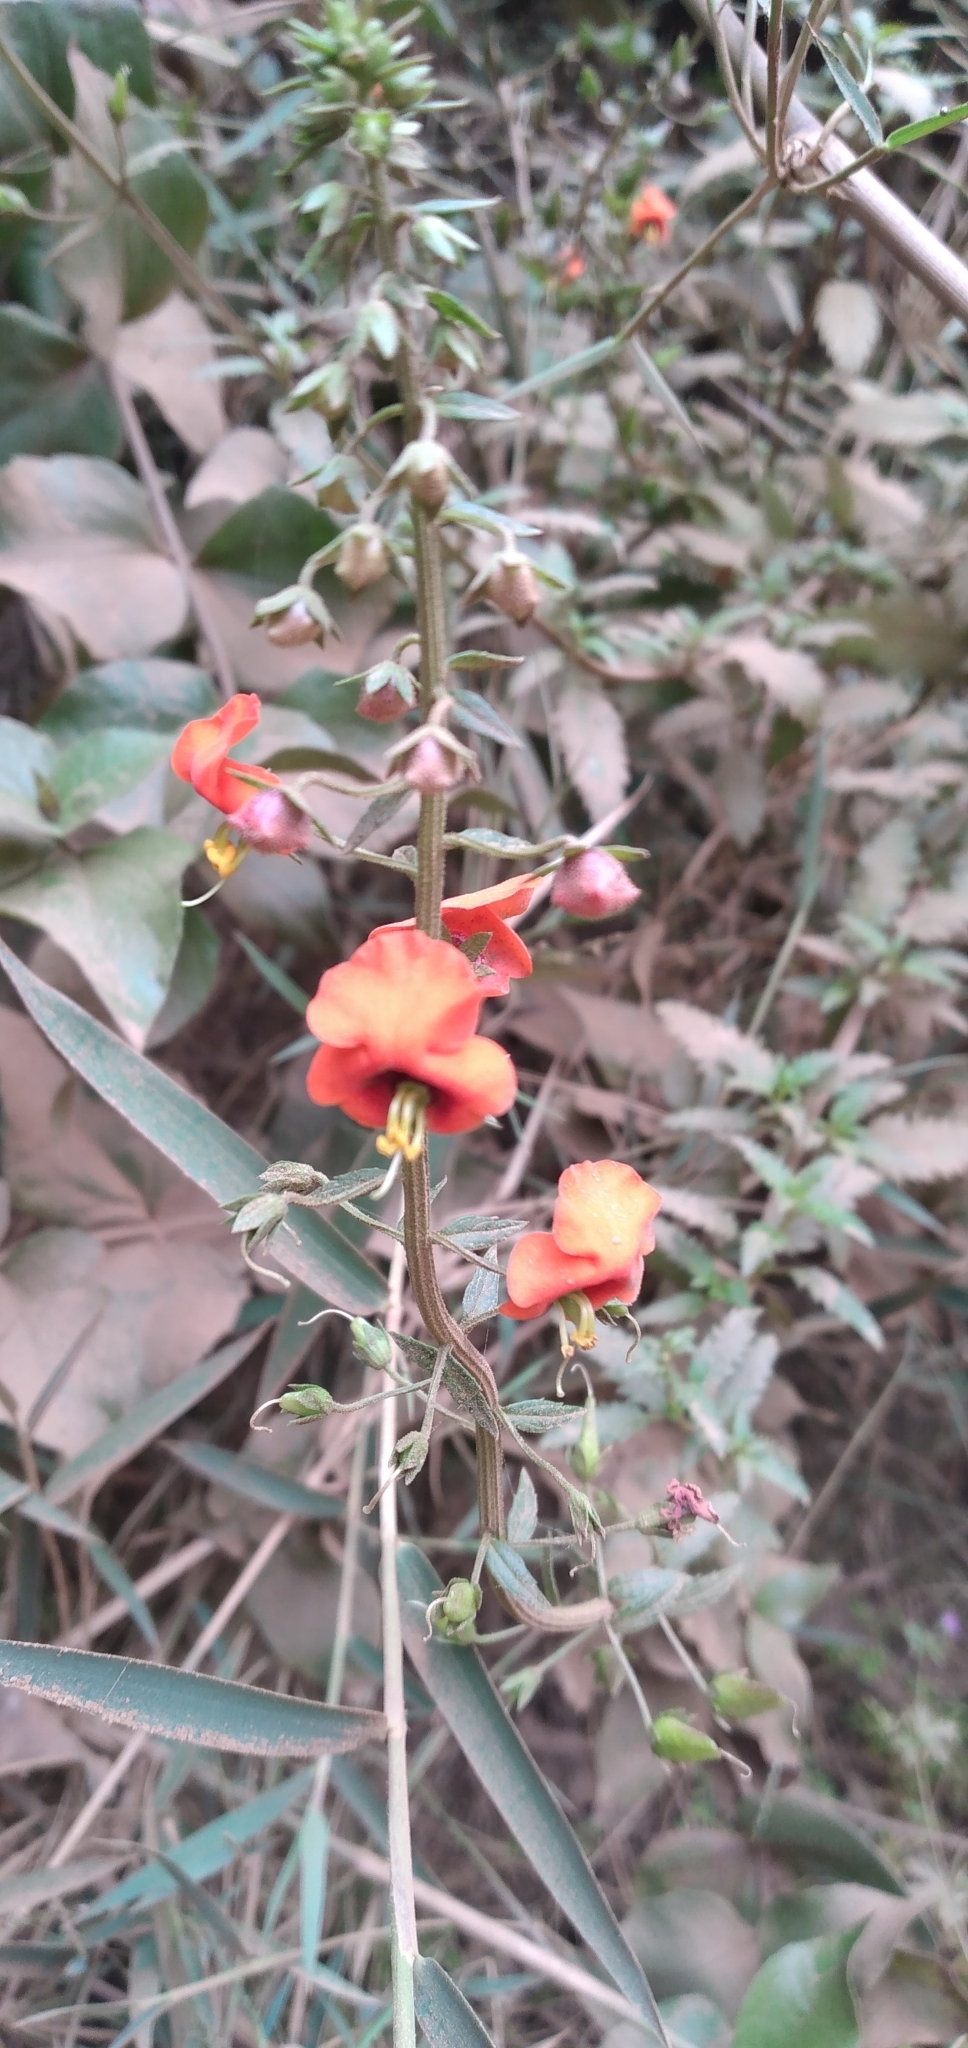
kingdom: Plantae
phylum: Tracheophyta
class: Magnoliopsida
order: Lamiales
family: Scrophulariaceae
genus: Alonsoa
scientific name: Alonsoa meridionalis
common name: Maskflower
